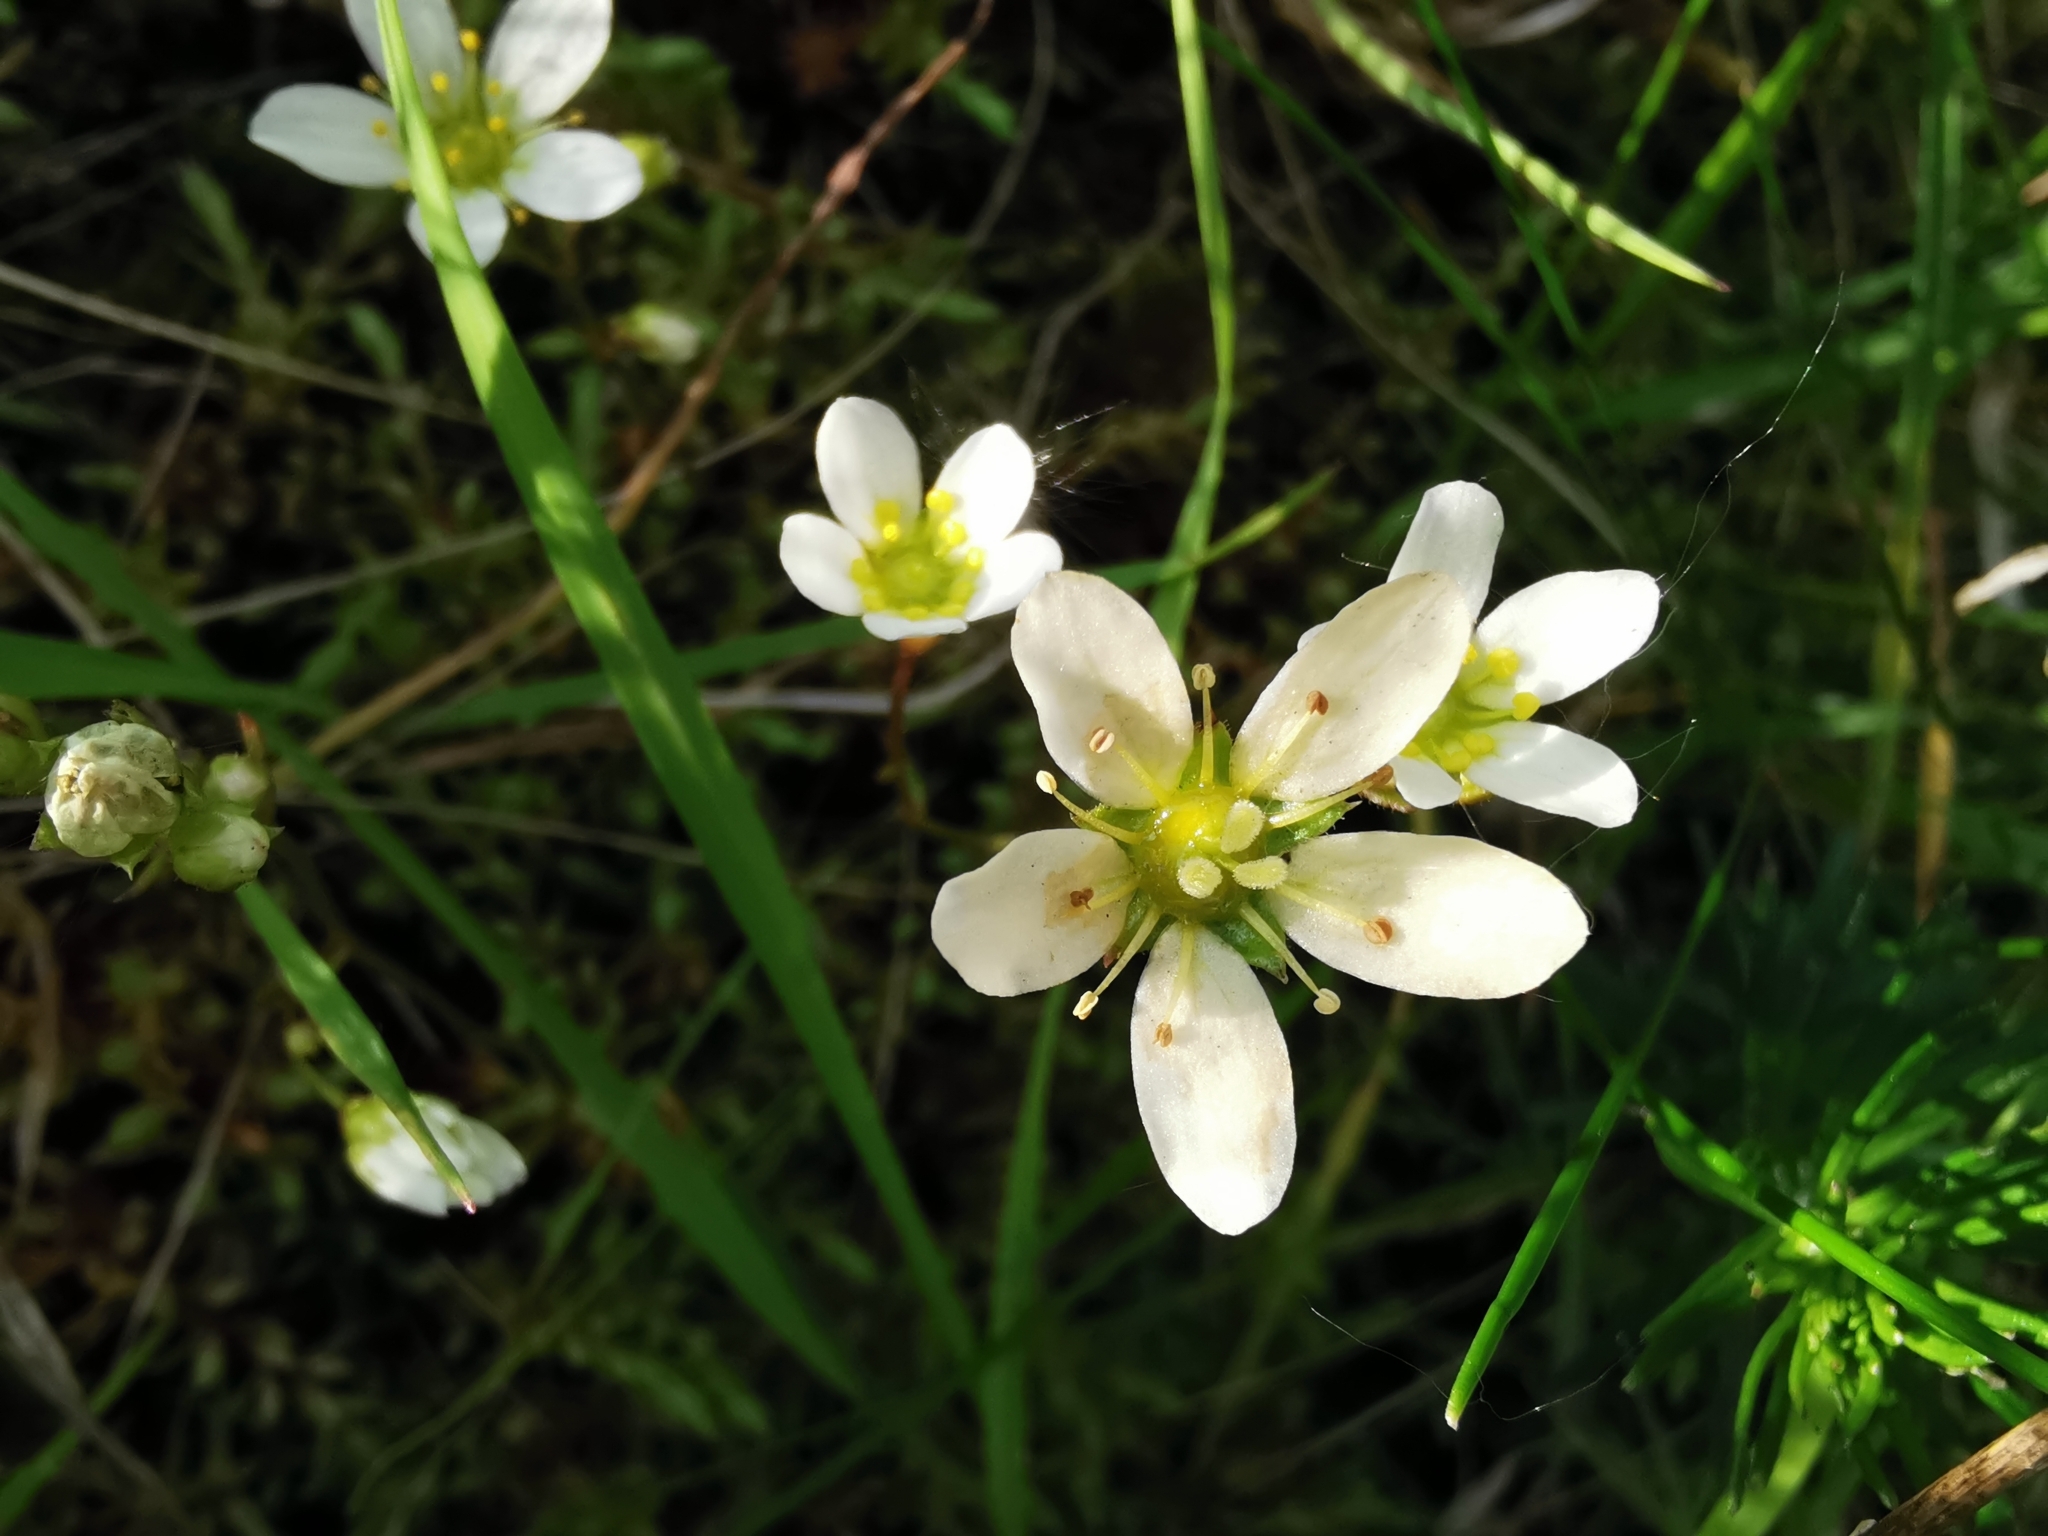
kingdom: Plantae
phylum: Tracheophyta
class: Magnoliopsida
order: Saxifragales
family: Saxifragaceae
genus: Saxifraga
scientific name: Saxifraga hypnoides
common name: Mossy saxifrage
